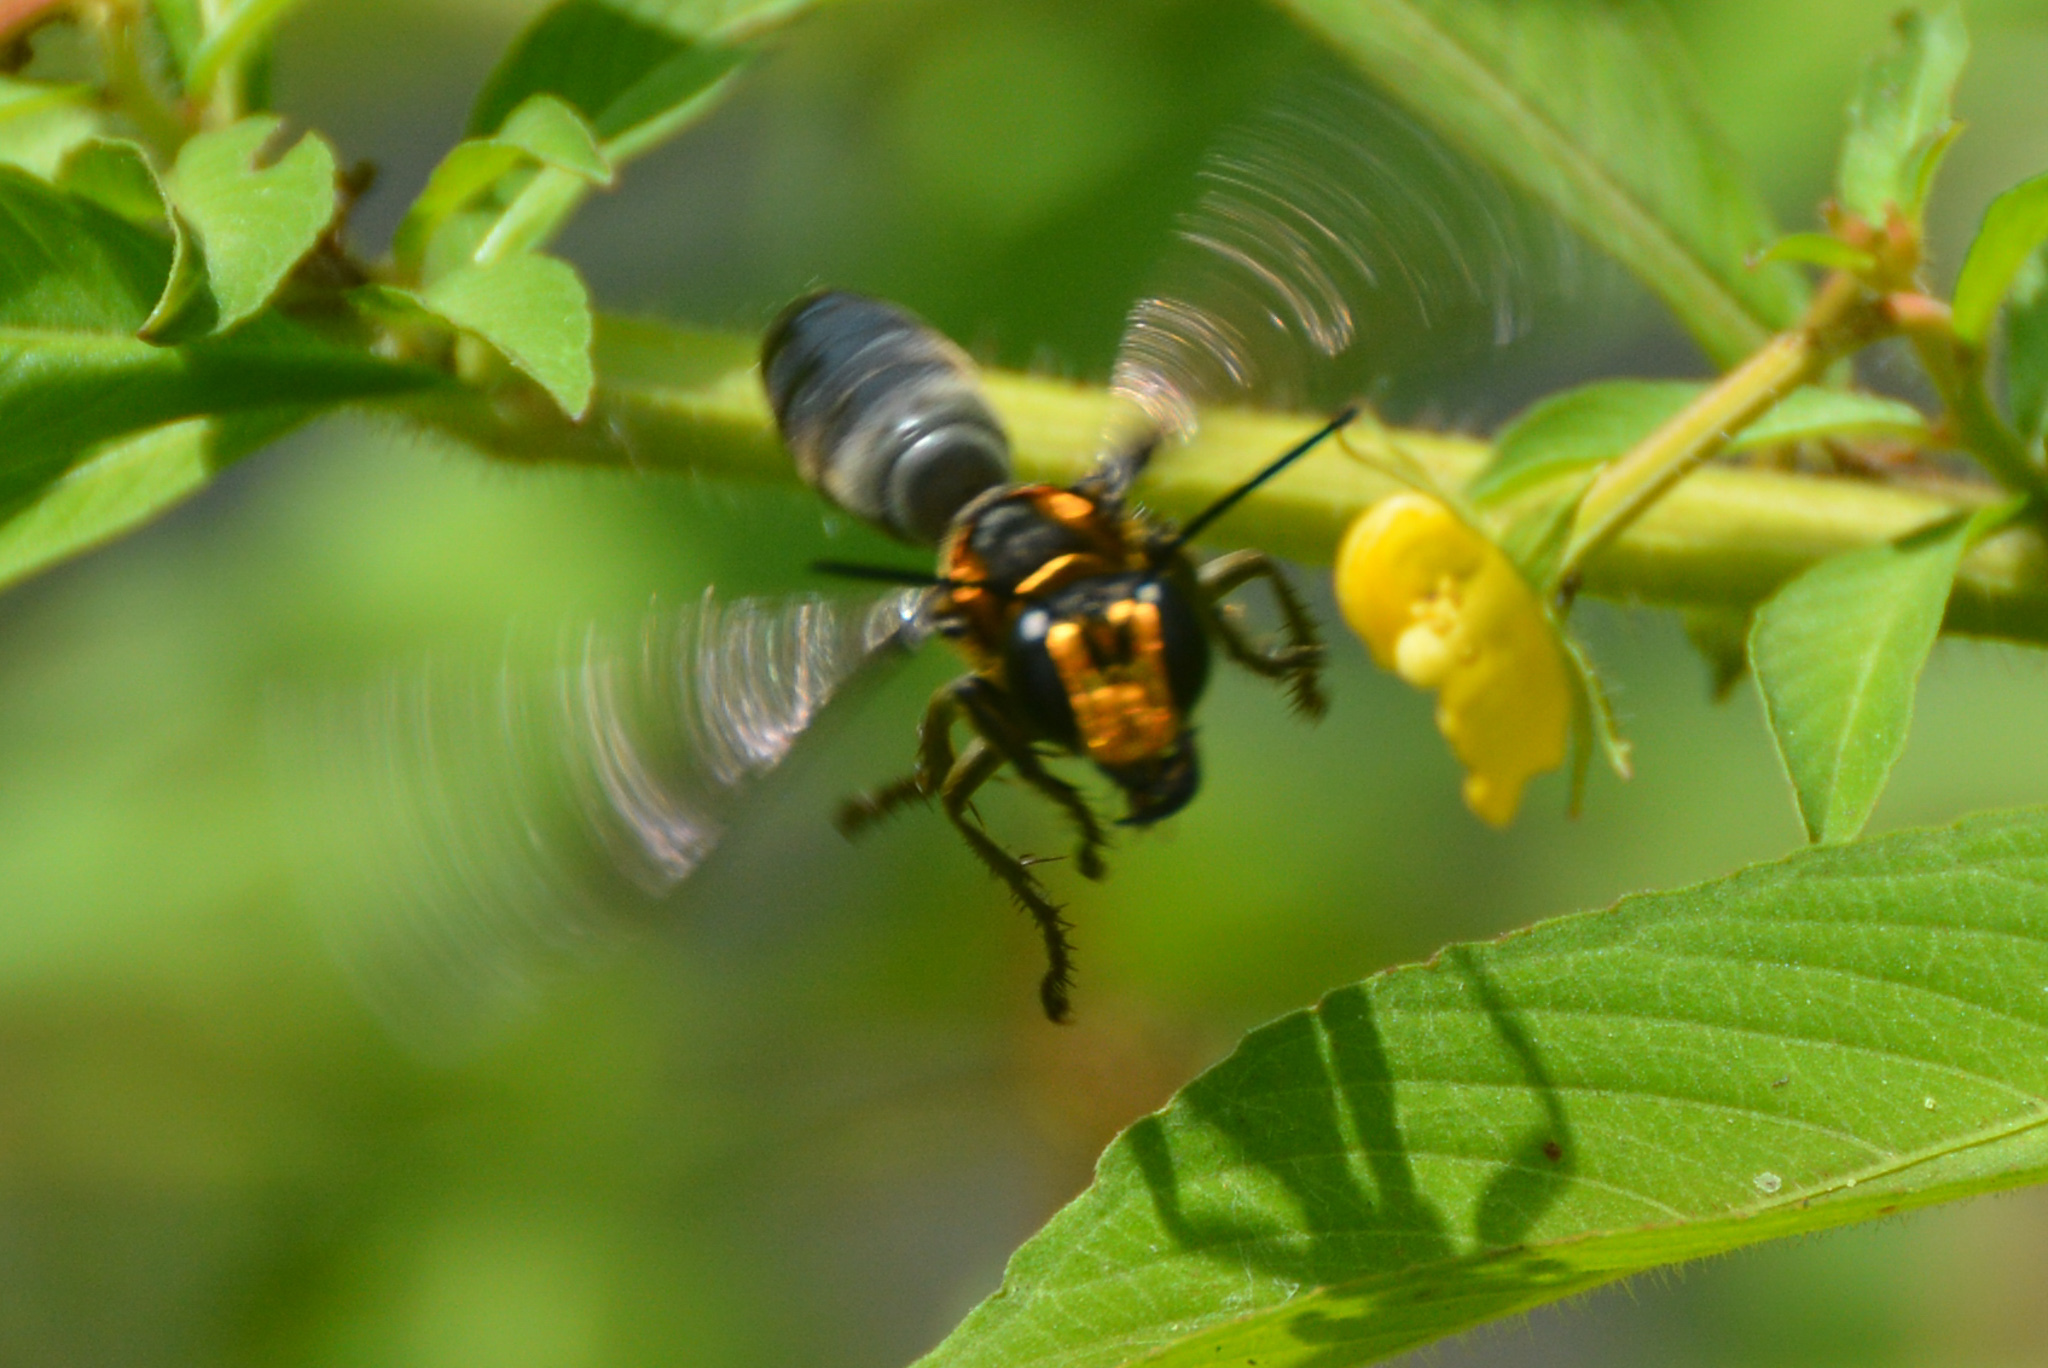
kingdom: Animalia
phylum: Arthropoda
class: Insecta
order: Hymenoptera
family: Sphecidae
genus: Sphex
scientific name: Sphex habenus
